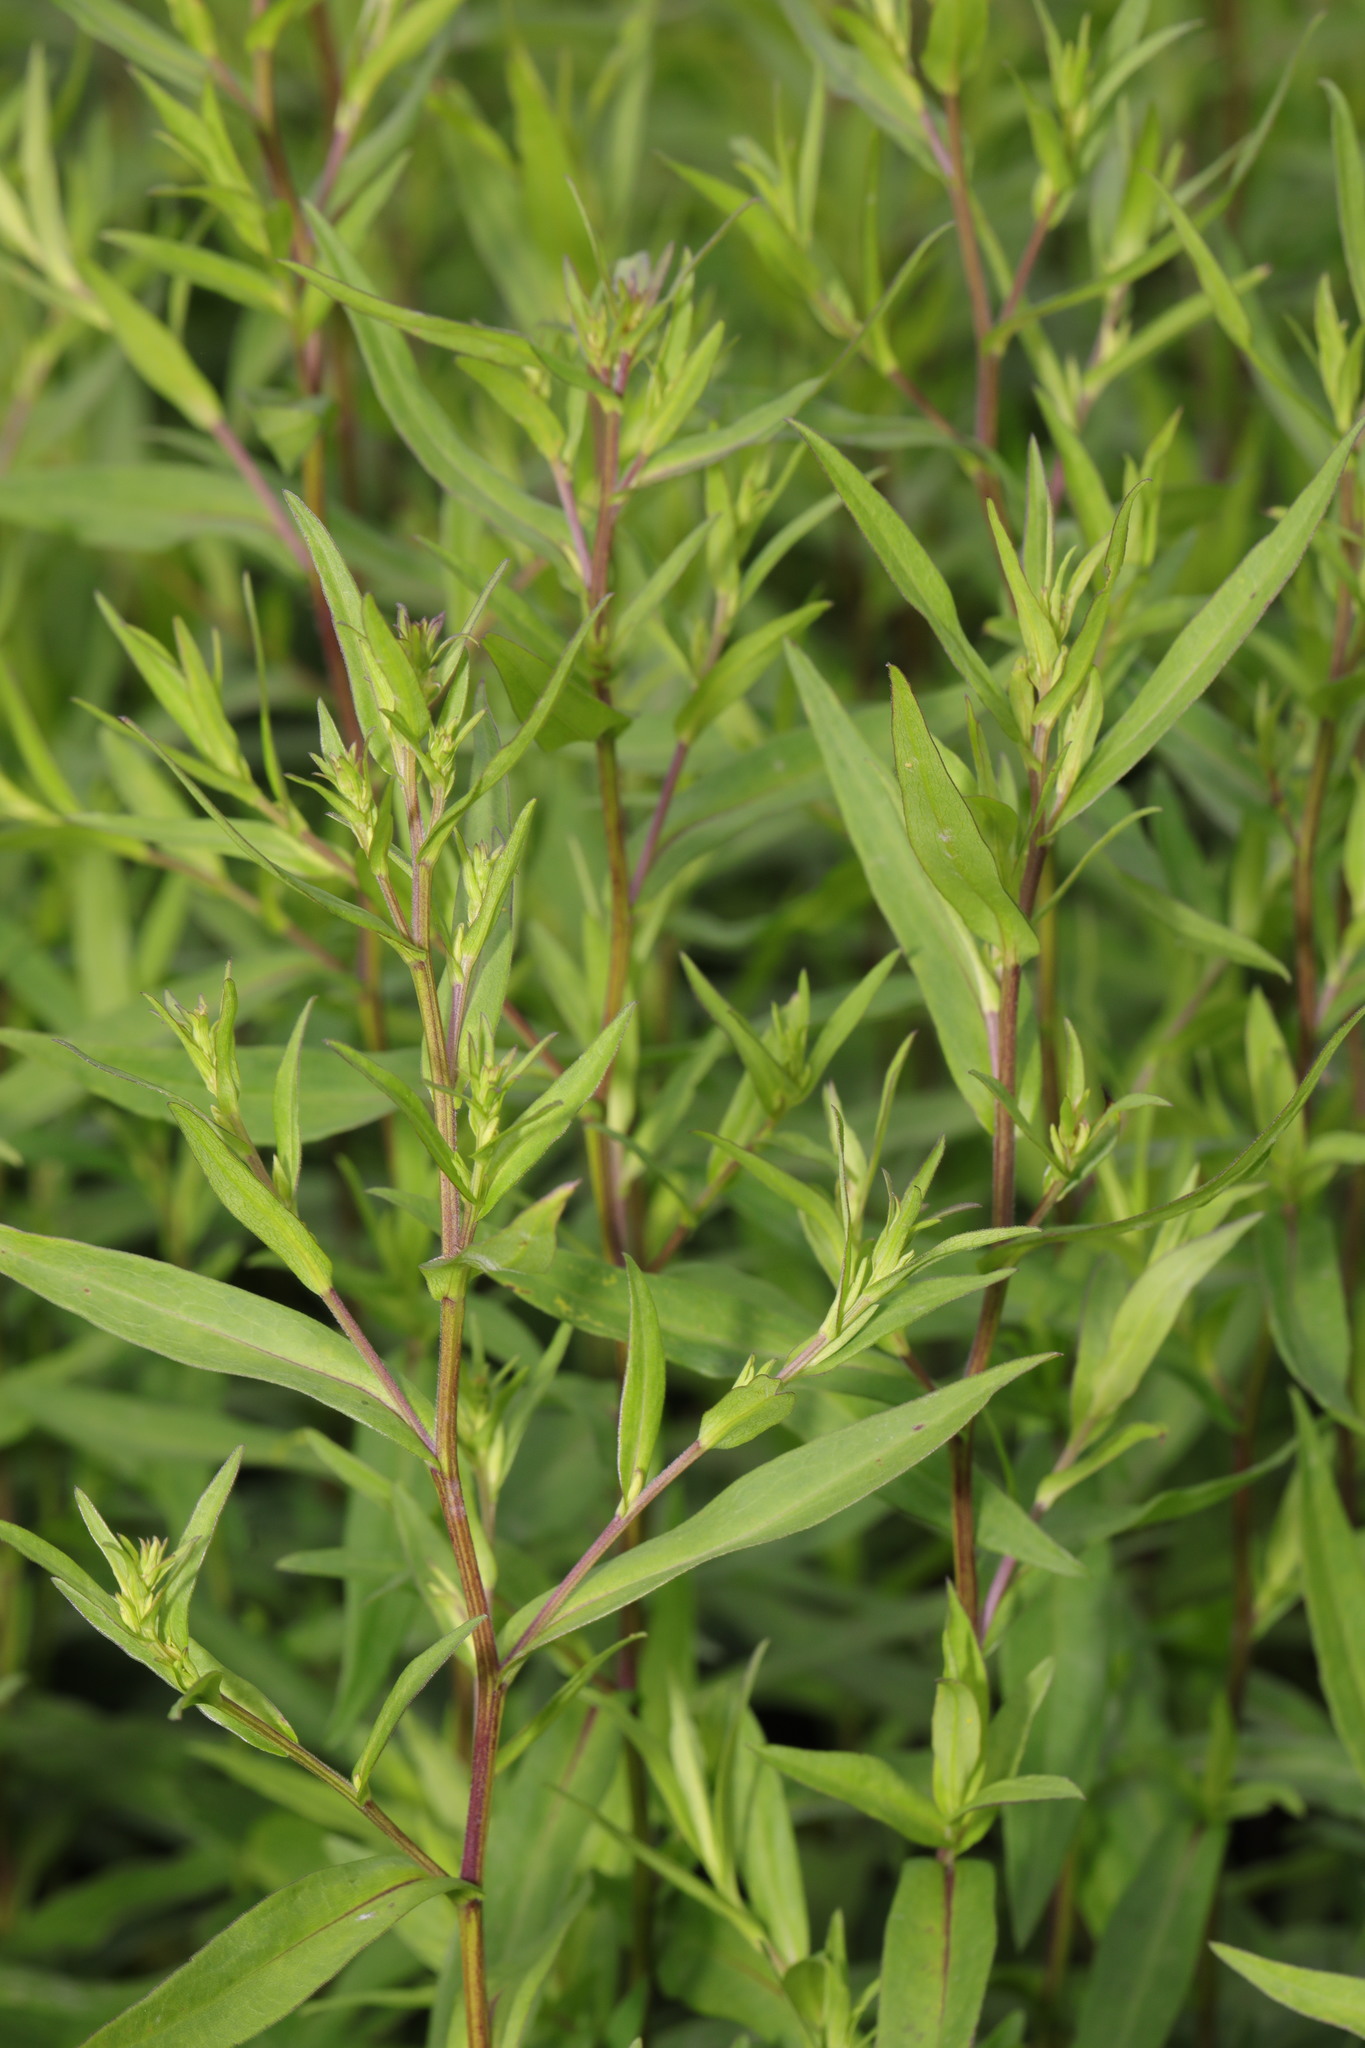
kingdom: Plantae
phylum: Tracheophyta
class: Magnoliopsida
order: Asterales
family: Asteraceae
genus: Symphyotrichum
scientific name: Symphyotrichum
